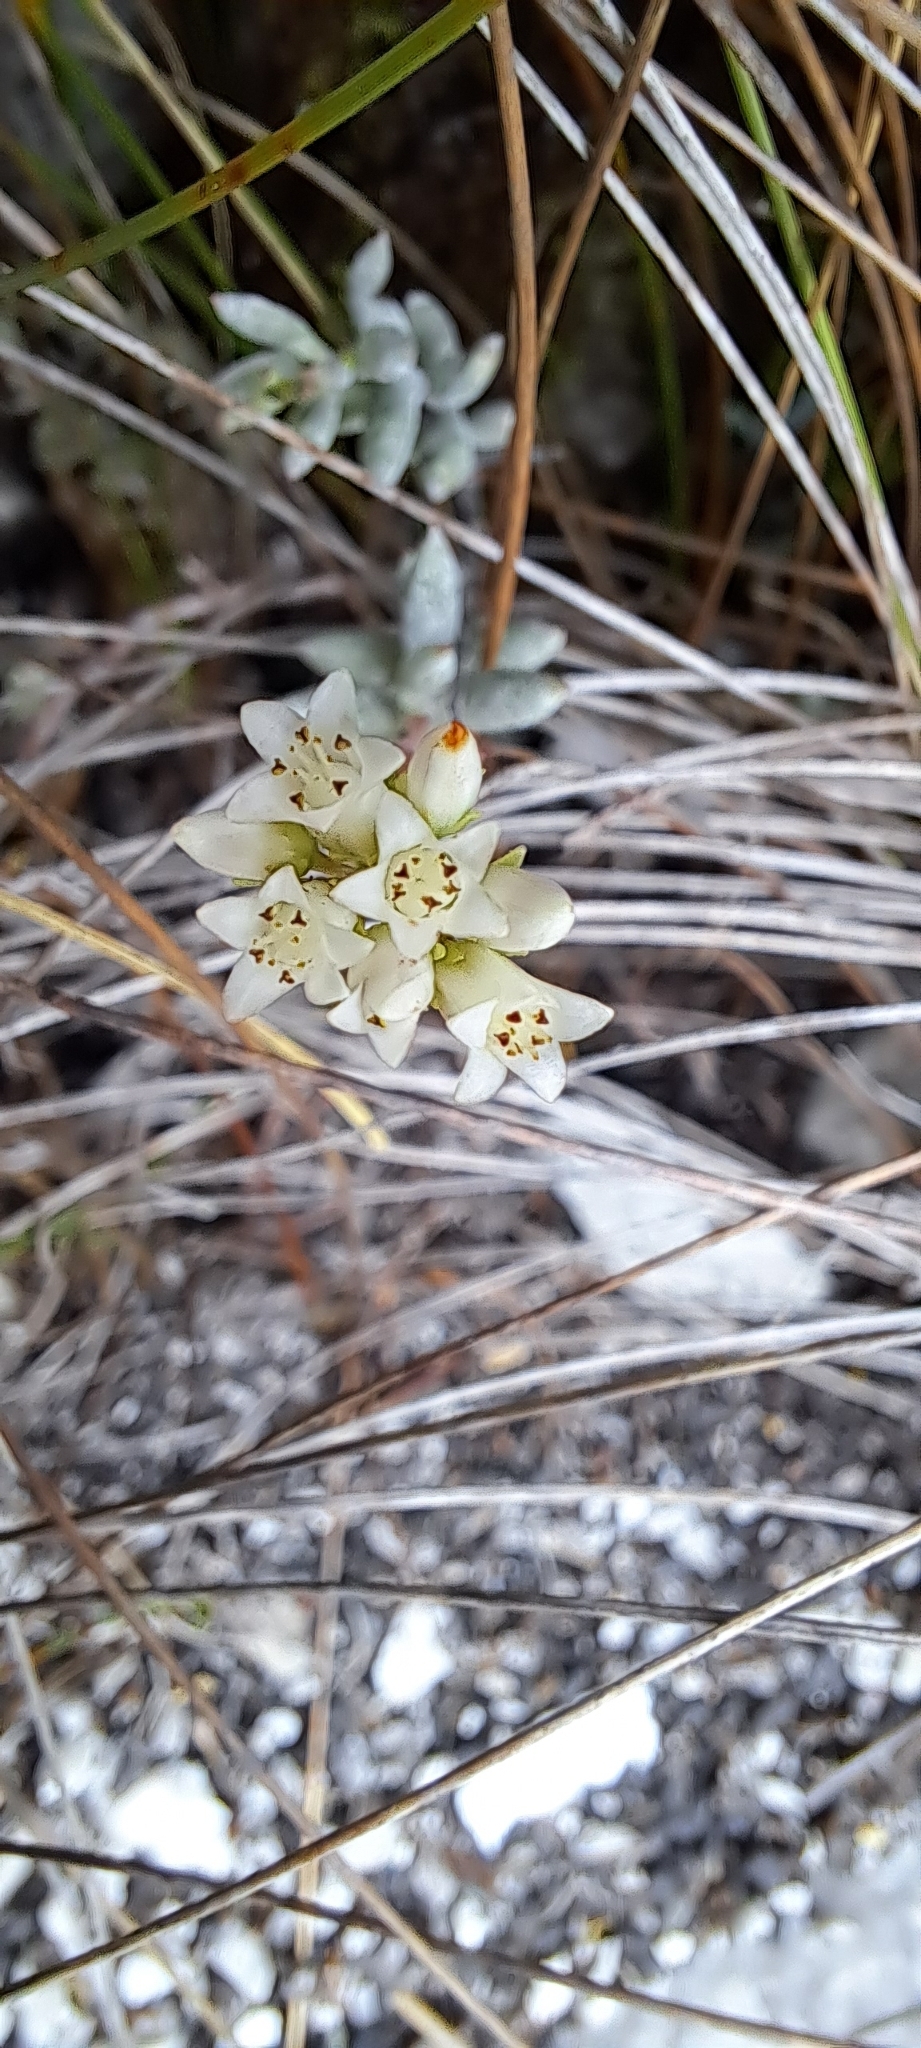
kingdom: Plantae
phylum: Tracheophyta
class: Magnoliopsida
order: Saxifragales
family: Crassulaceae
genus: Crassula
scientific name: Crassula biplanata
